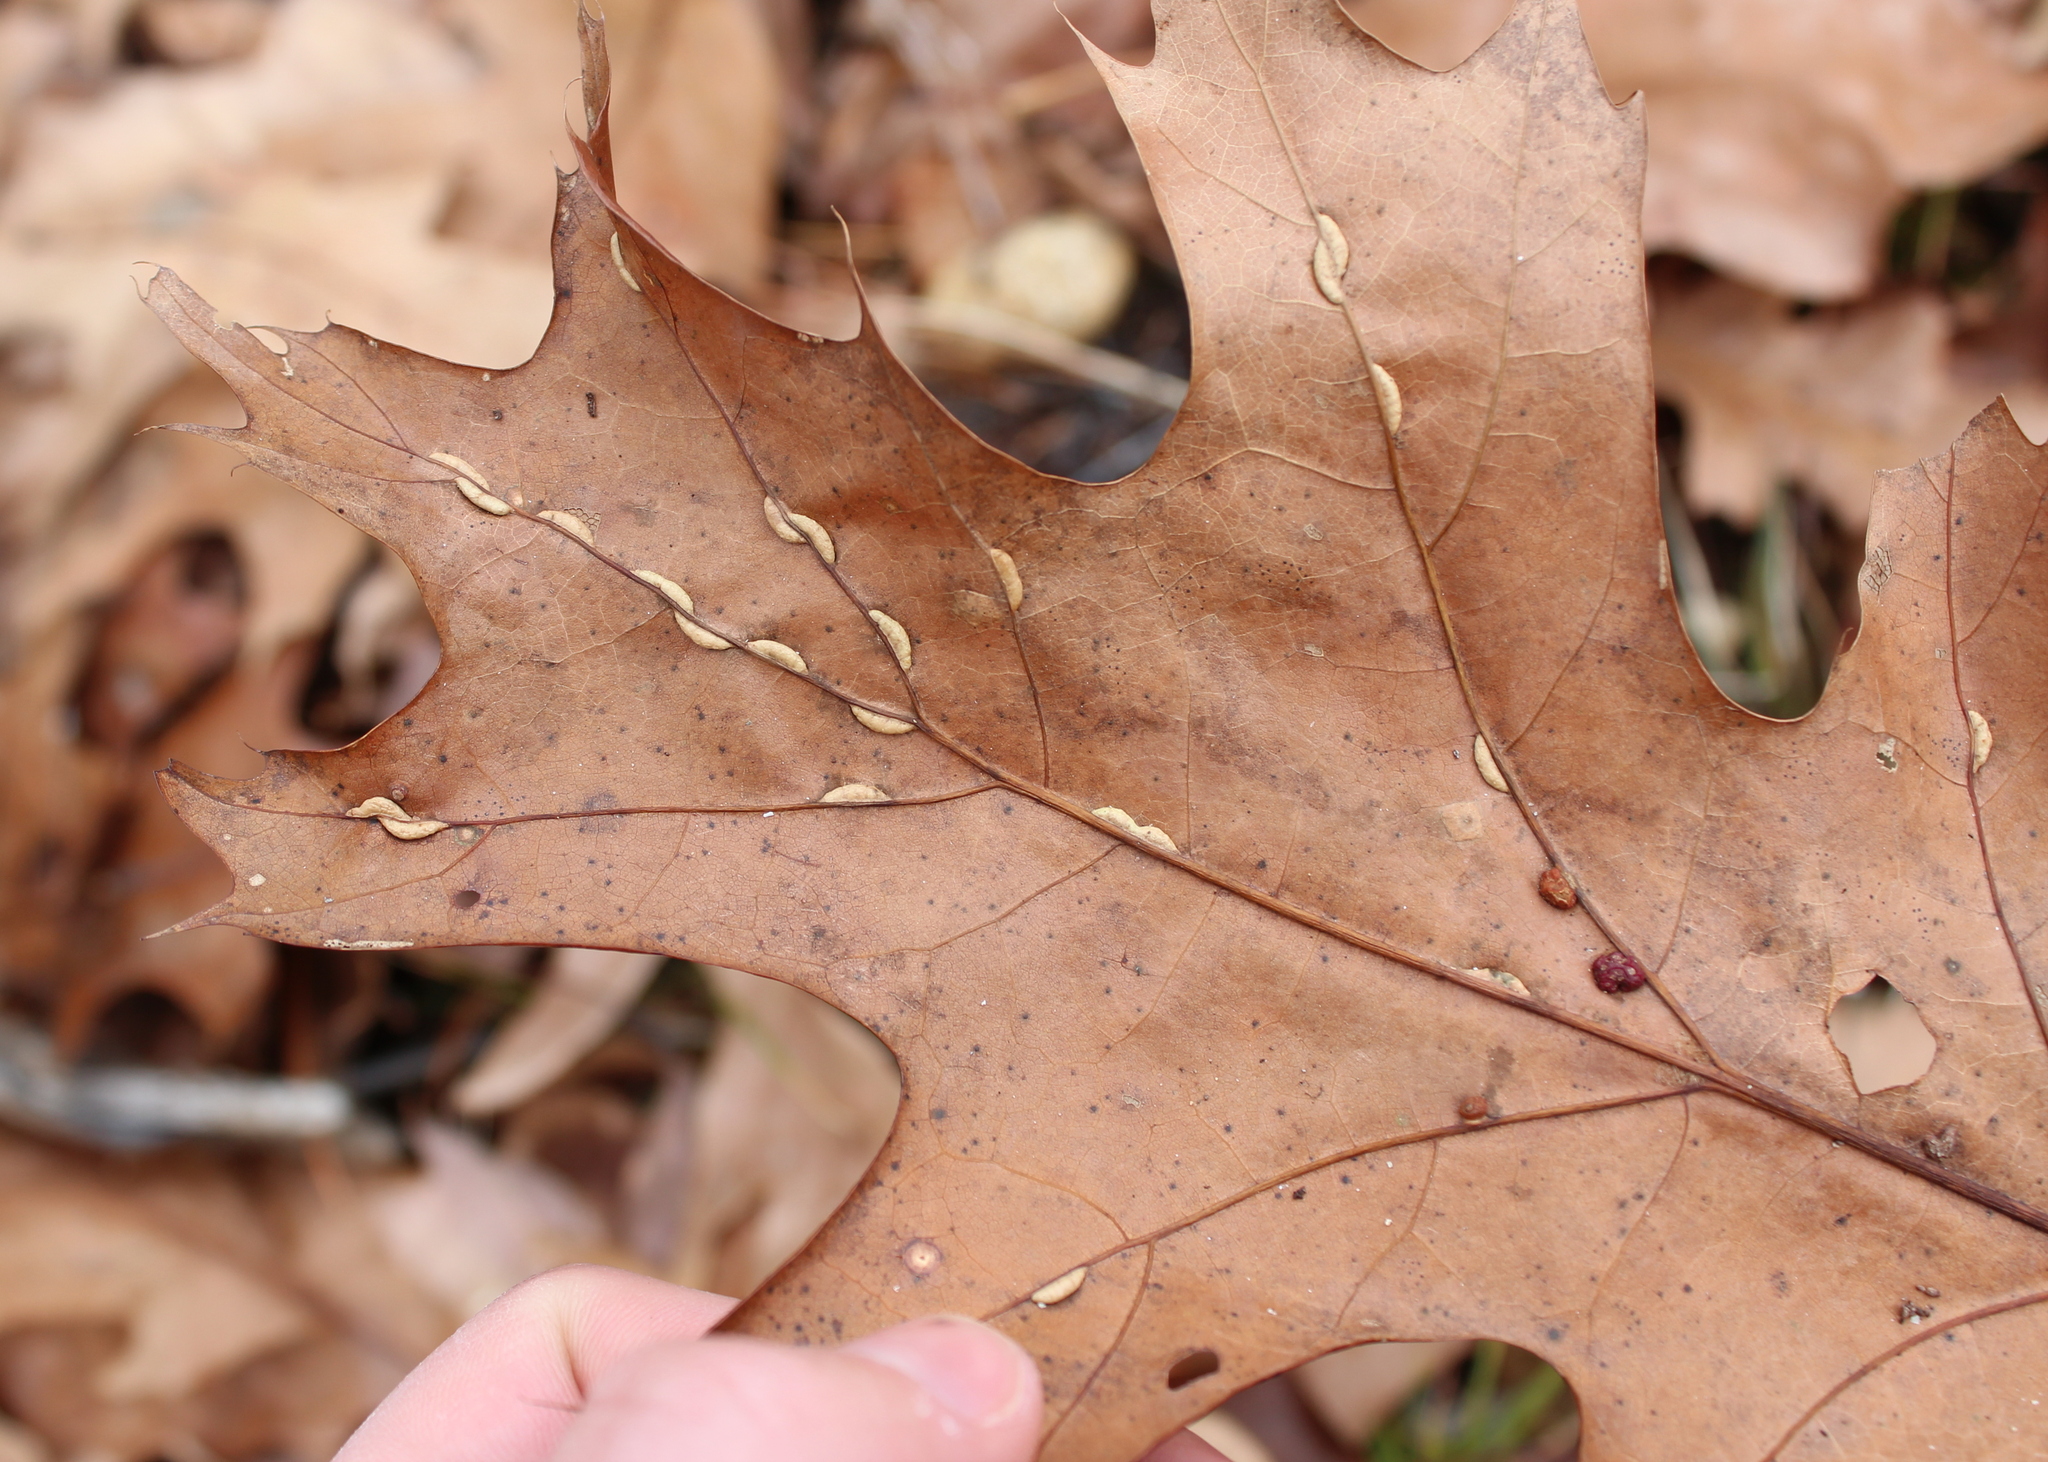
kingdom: Animalia
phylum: Arthropoda
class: Insecta
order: Diptera
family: Cecidomyiidae
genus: Macrodiplosis
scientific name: Macrodiplosis q-orucum
